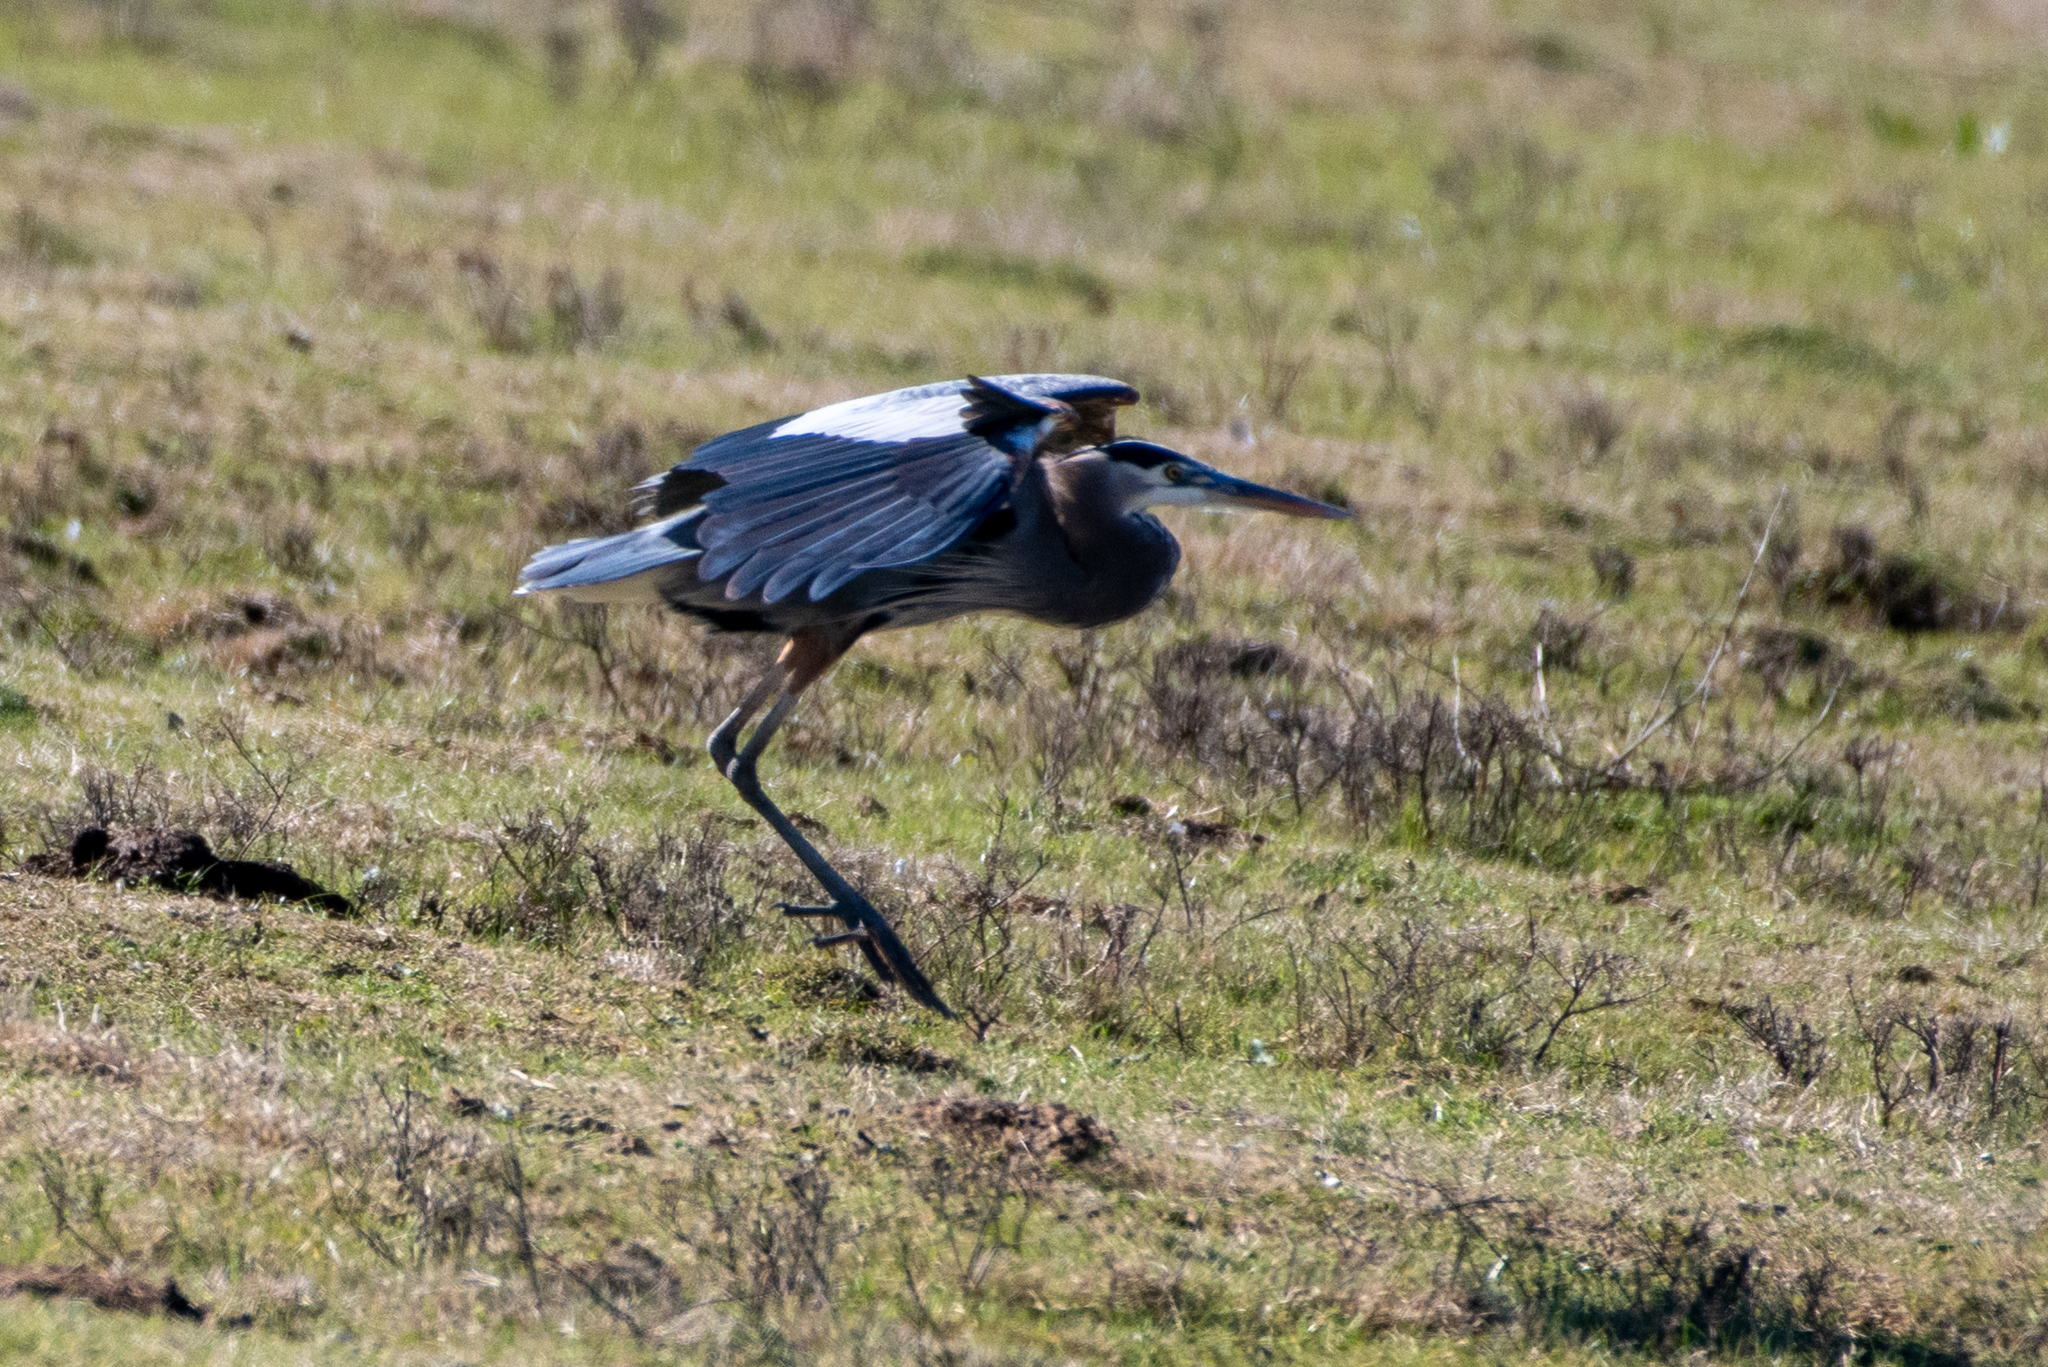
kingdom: Animalia
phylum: Chordata
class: Aves
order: Pelecaniformes
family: Ardeidae
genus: Ardea
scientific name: Ardea herodias
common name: Great blue heron
